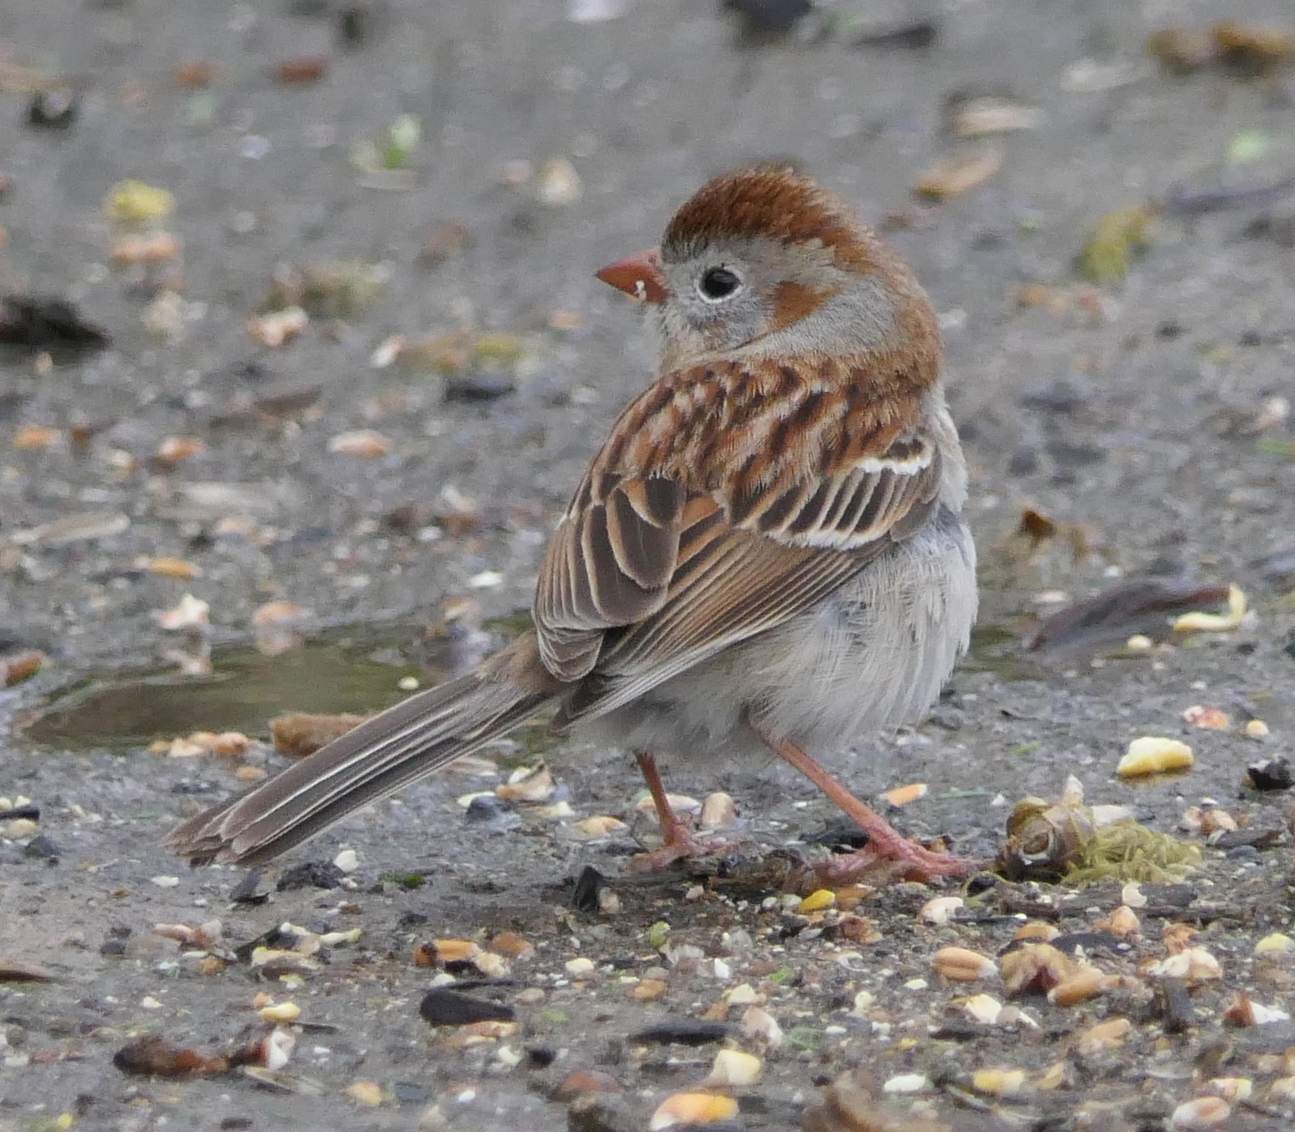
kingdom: Animalia
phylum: Chordata
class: Aves
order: Passeriformes
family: Passerellidae
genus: Spizella
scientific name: Spizella pusilla
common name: Field sparrow
